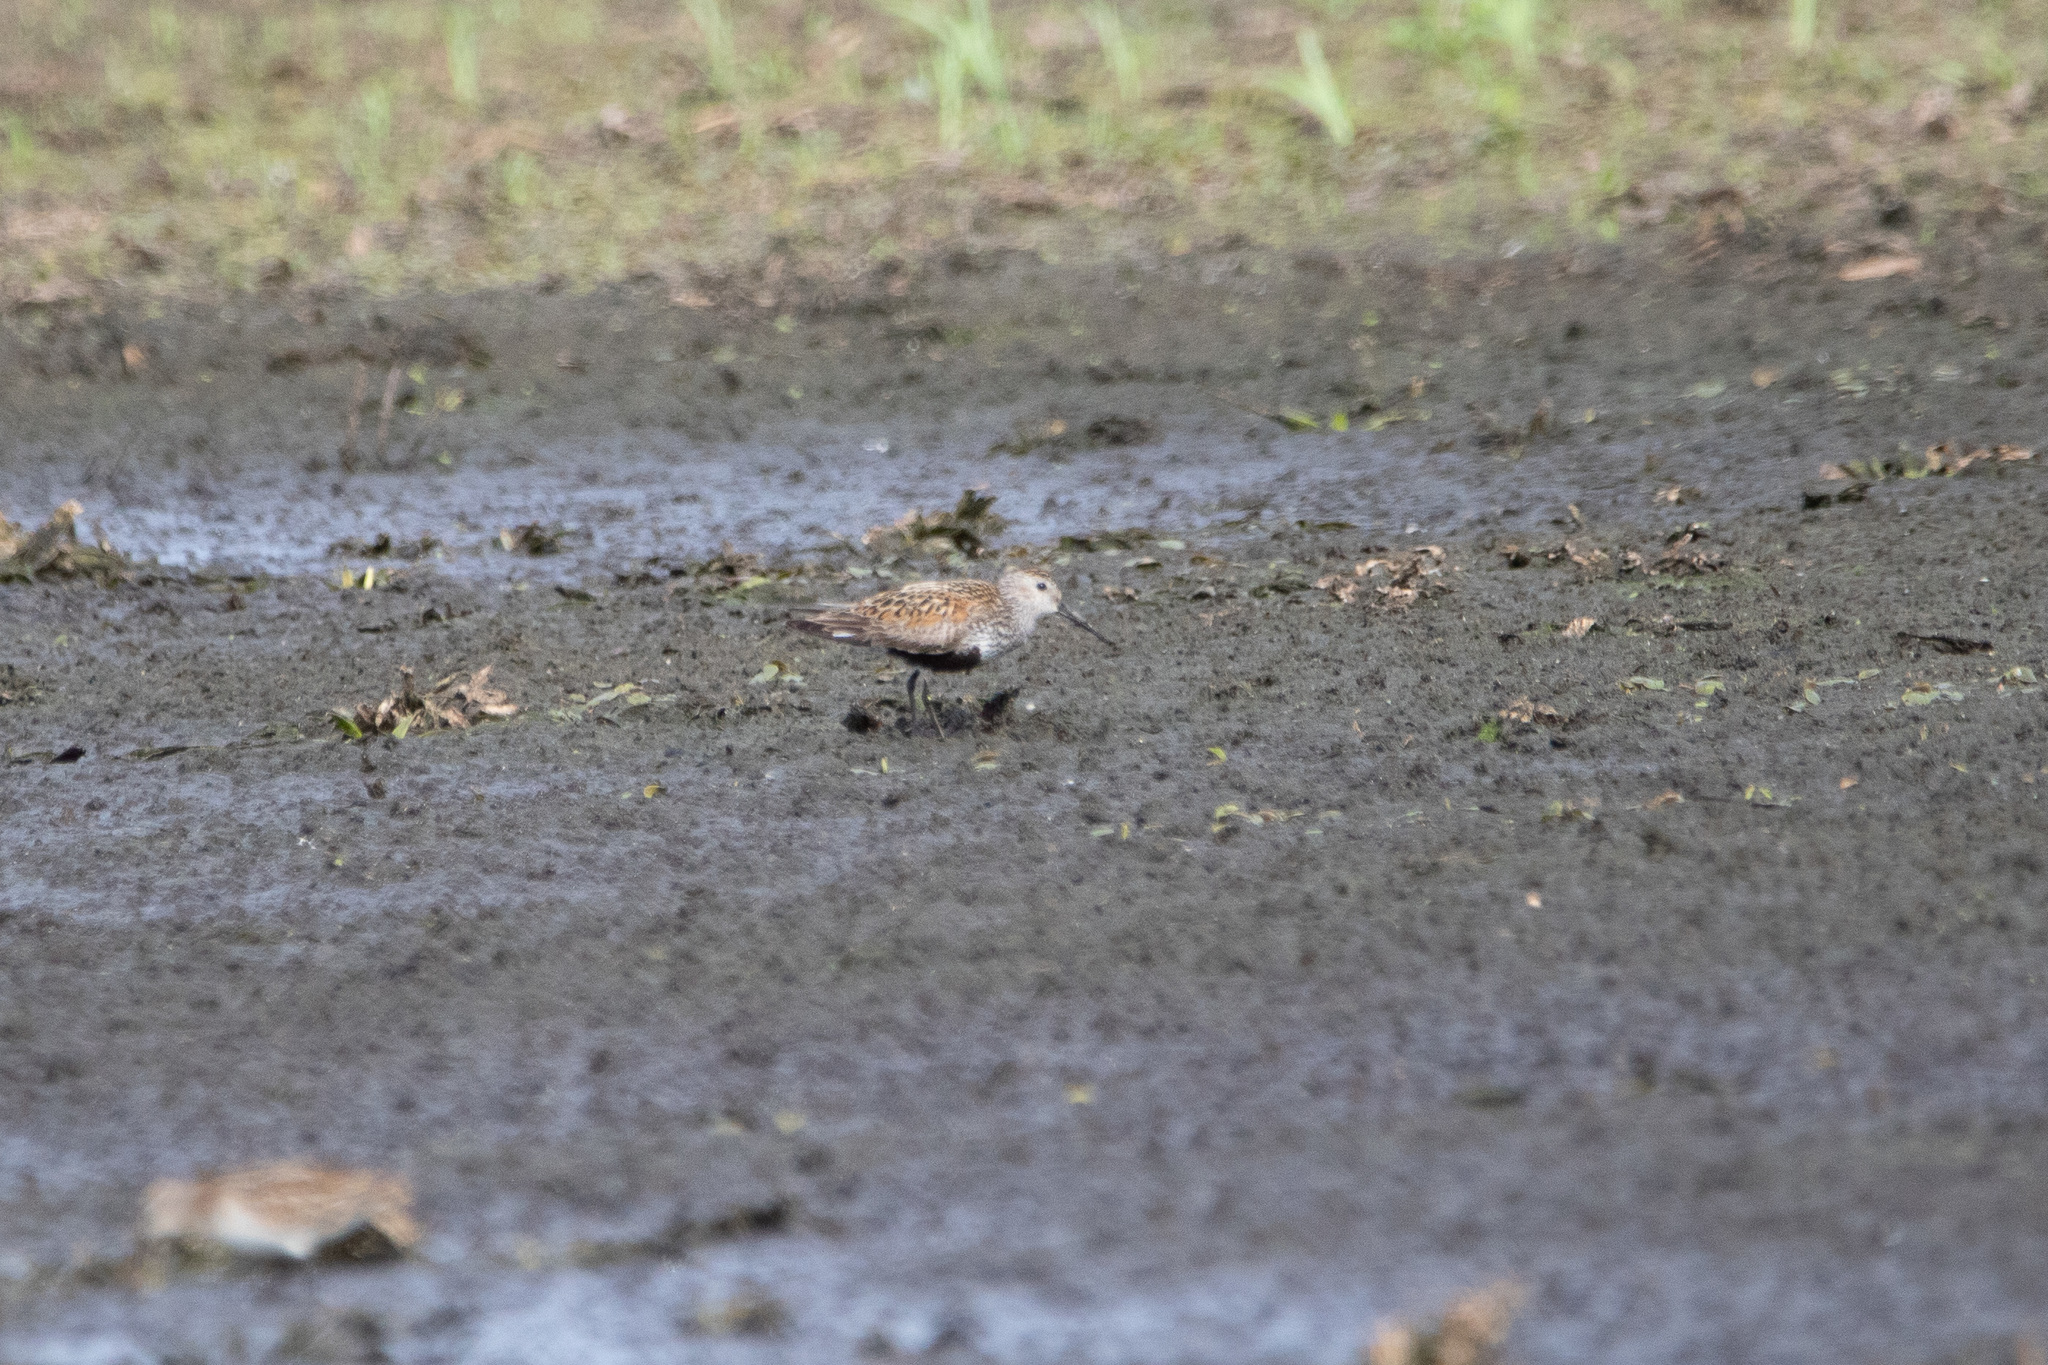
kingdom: Animalia
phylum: Chordata
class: Aves
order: Charadriiformes
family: Scolopacidae
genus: Calidris
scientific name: Calidris alpina
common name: Dunlin
